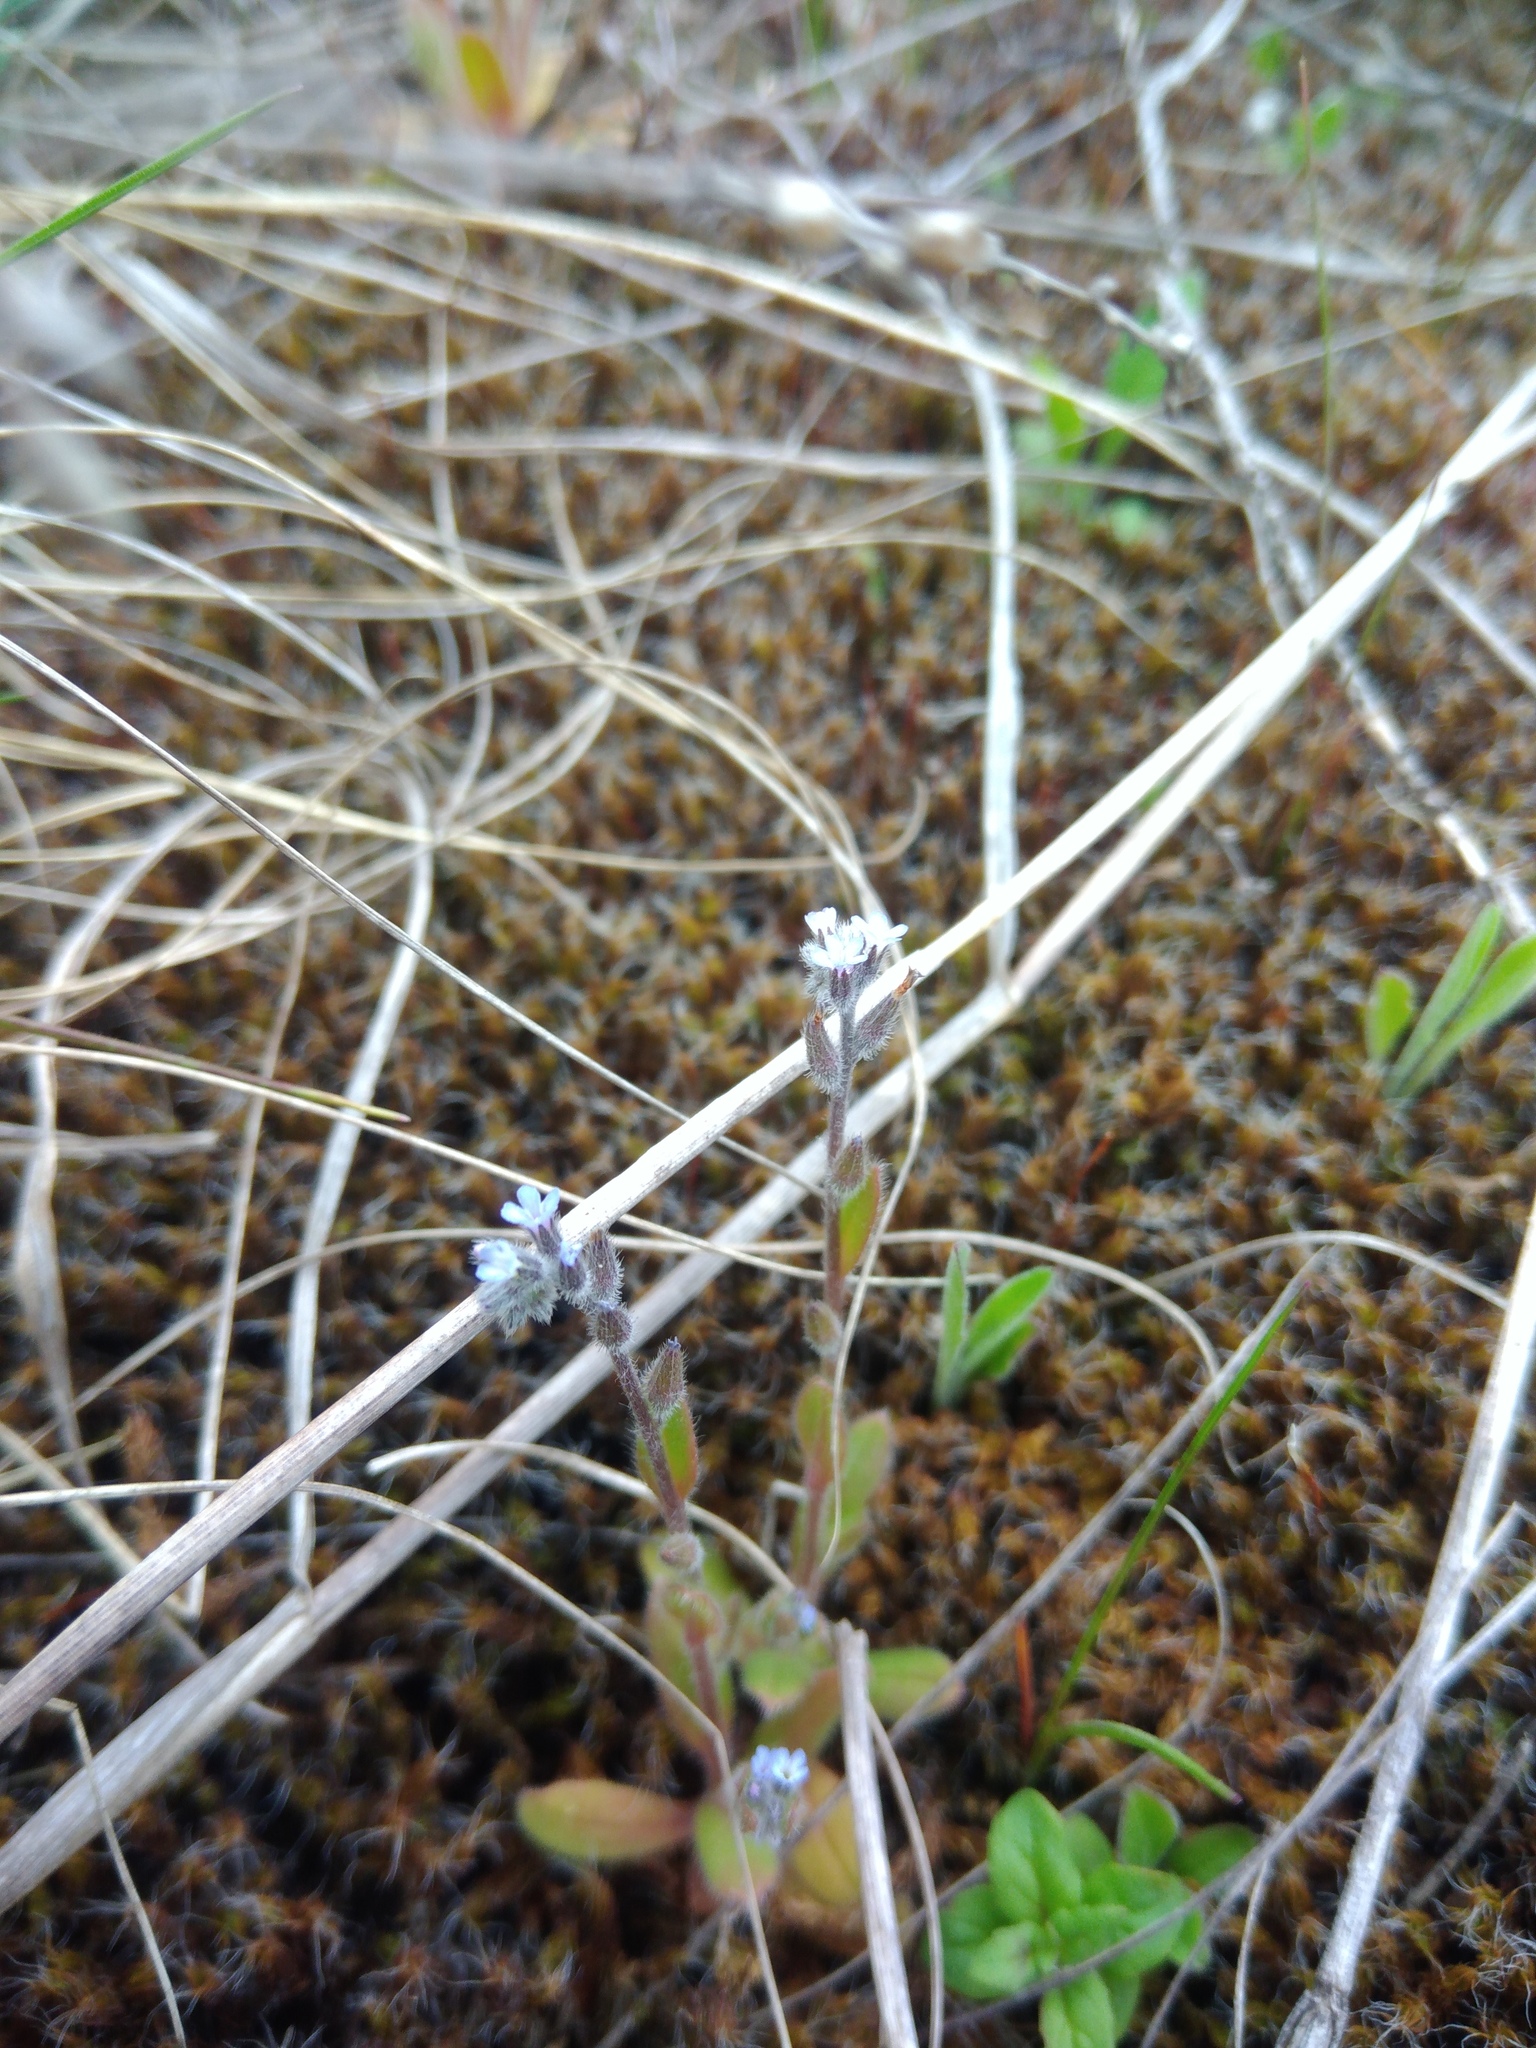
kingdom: Plantae
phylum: Tracheophyta
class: Magnoliopsida
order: Boraginales
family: Boraginaceae
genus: Myosotis
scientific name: Myosotis stricta
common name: Strict forget-me-not
